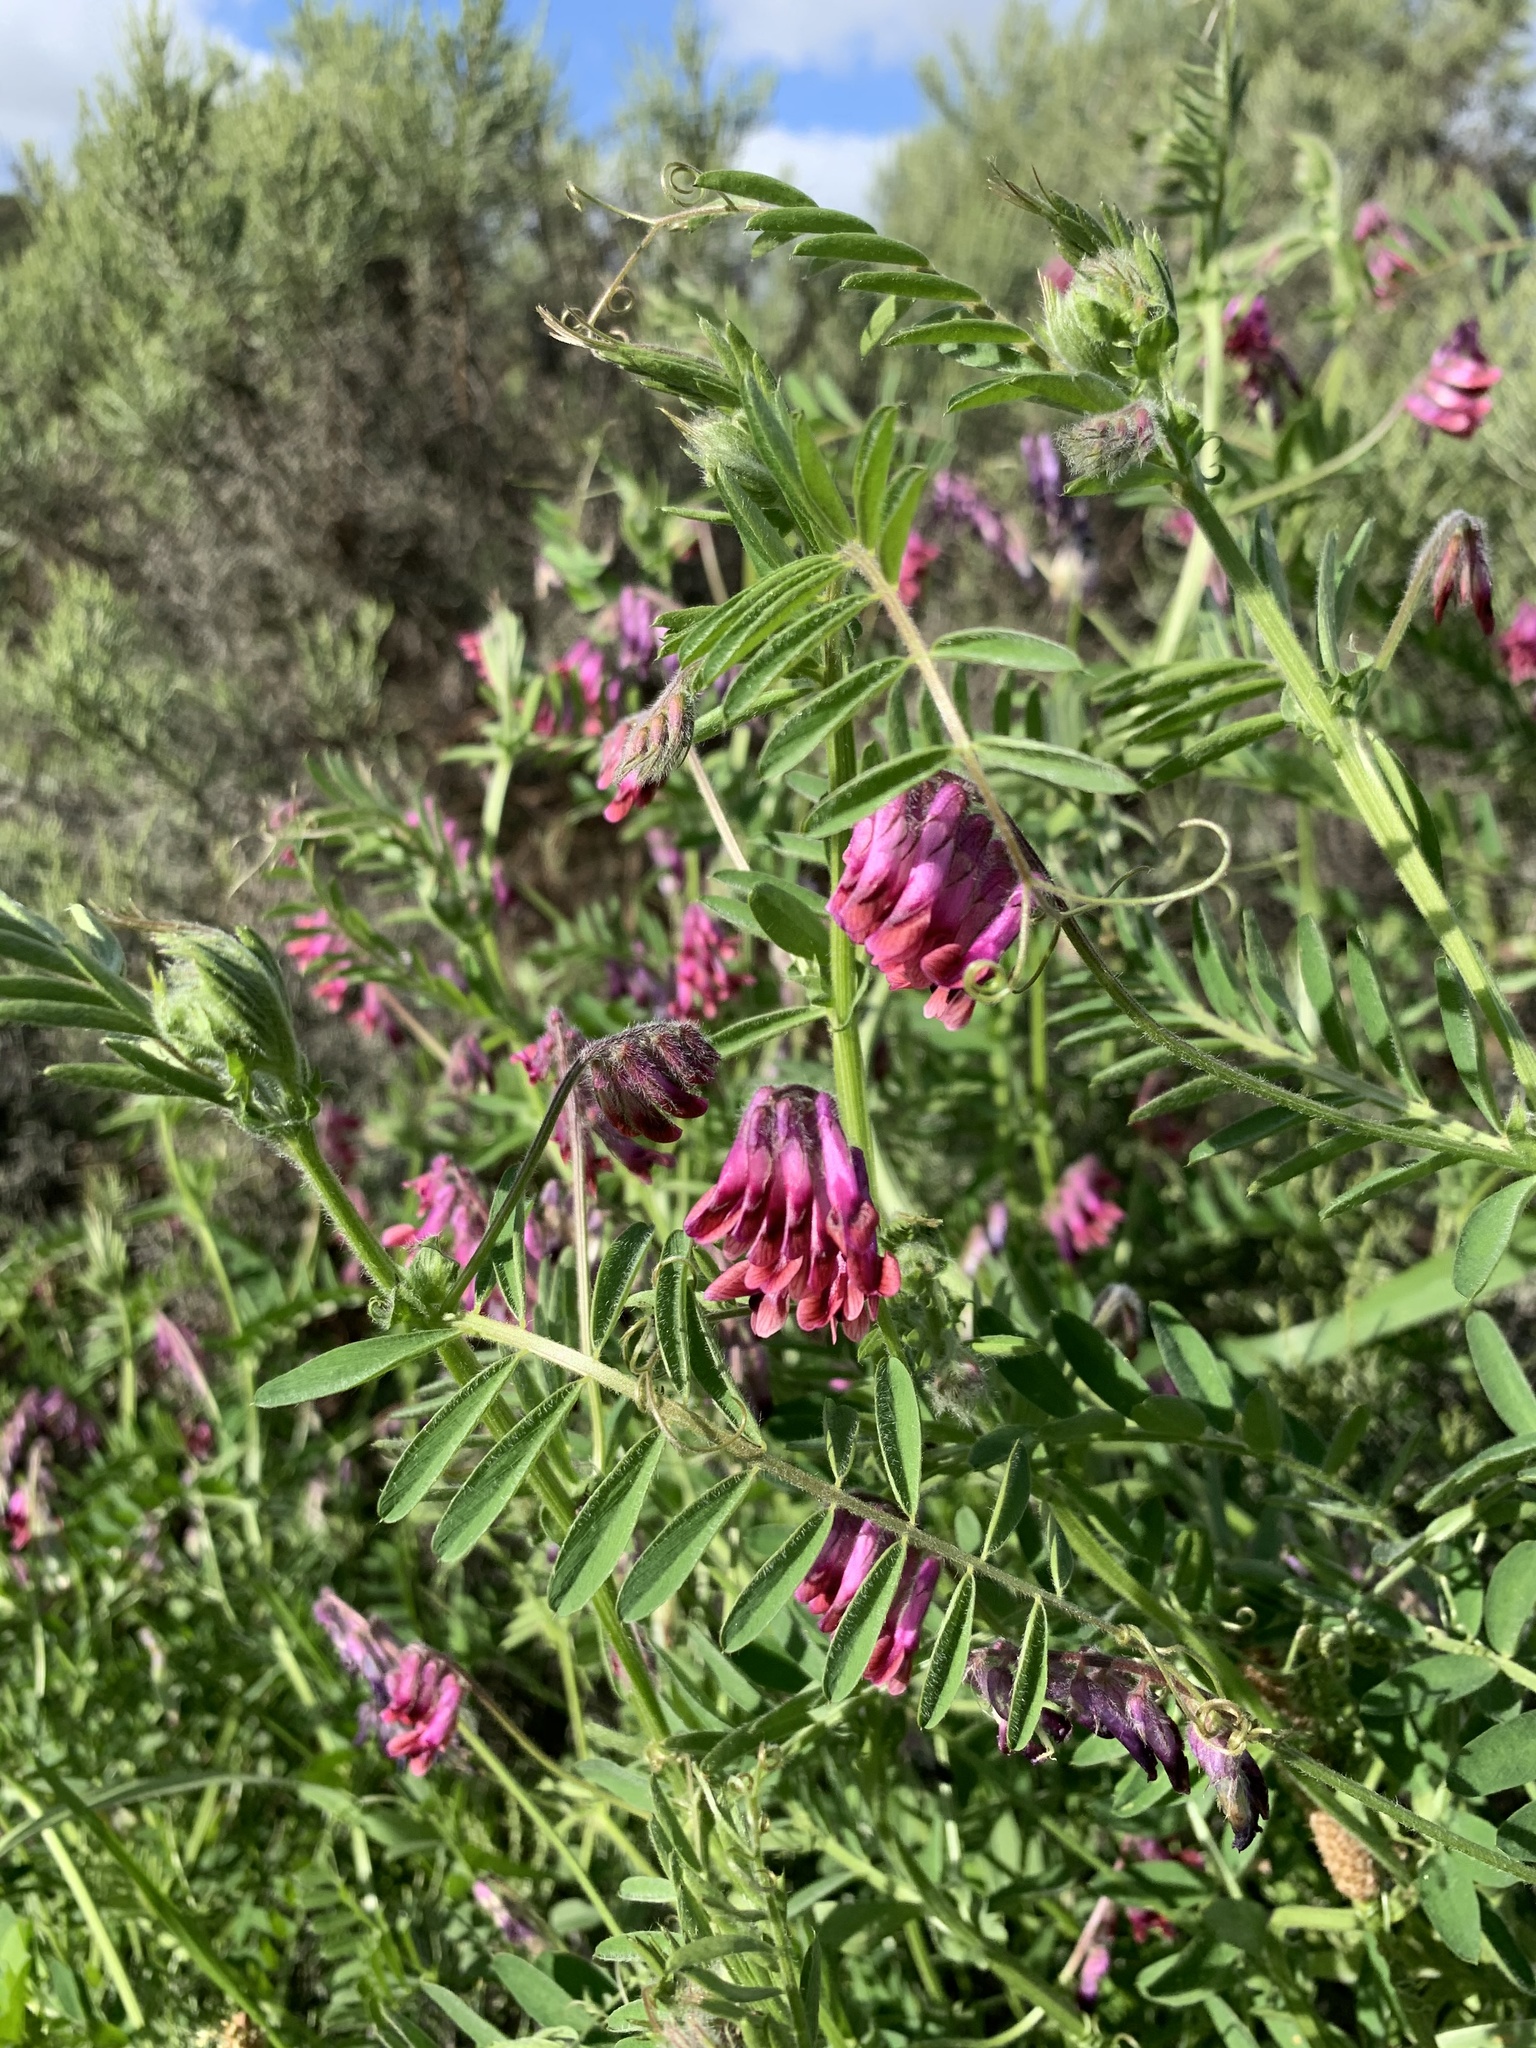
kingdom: Plantae
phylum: Tracheophyta
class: Magnoliopsida
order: Fabales
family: Fabaceae
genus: Vicia
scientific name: Vicia benghalensis
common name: Purple vetch
